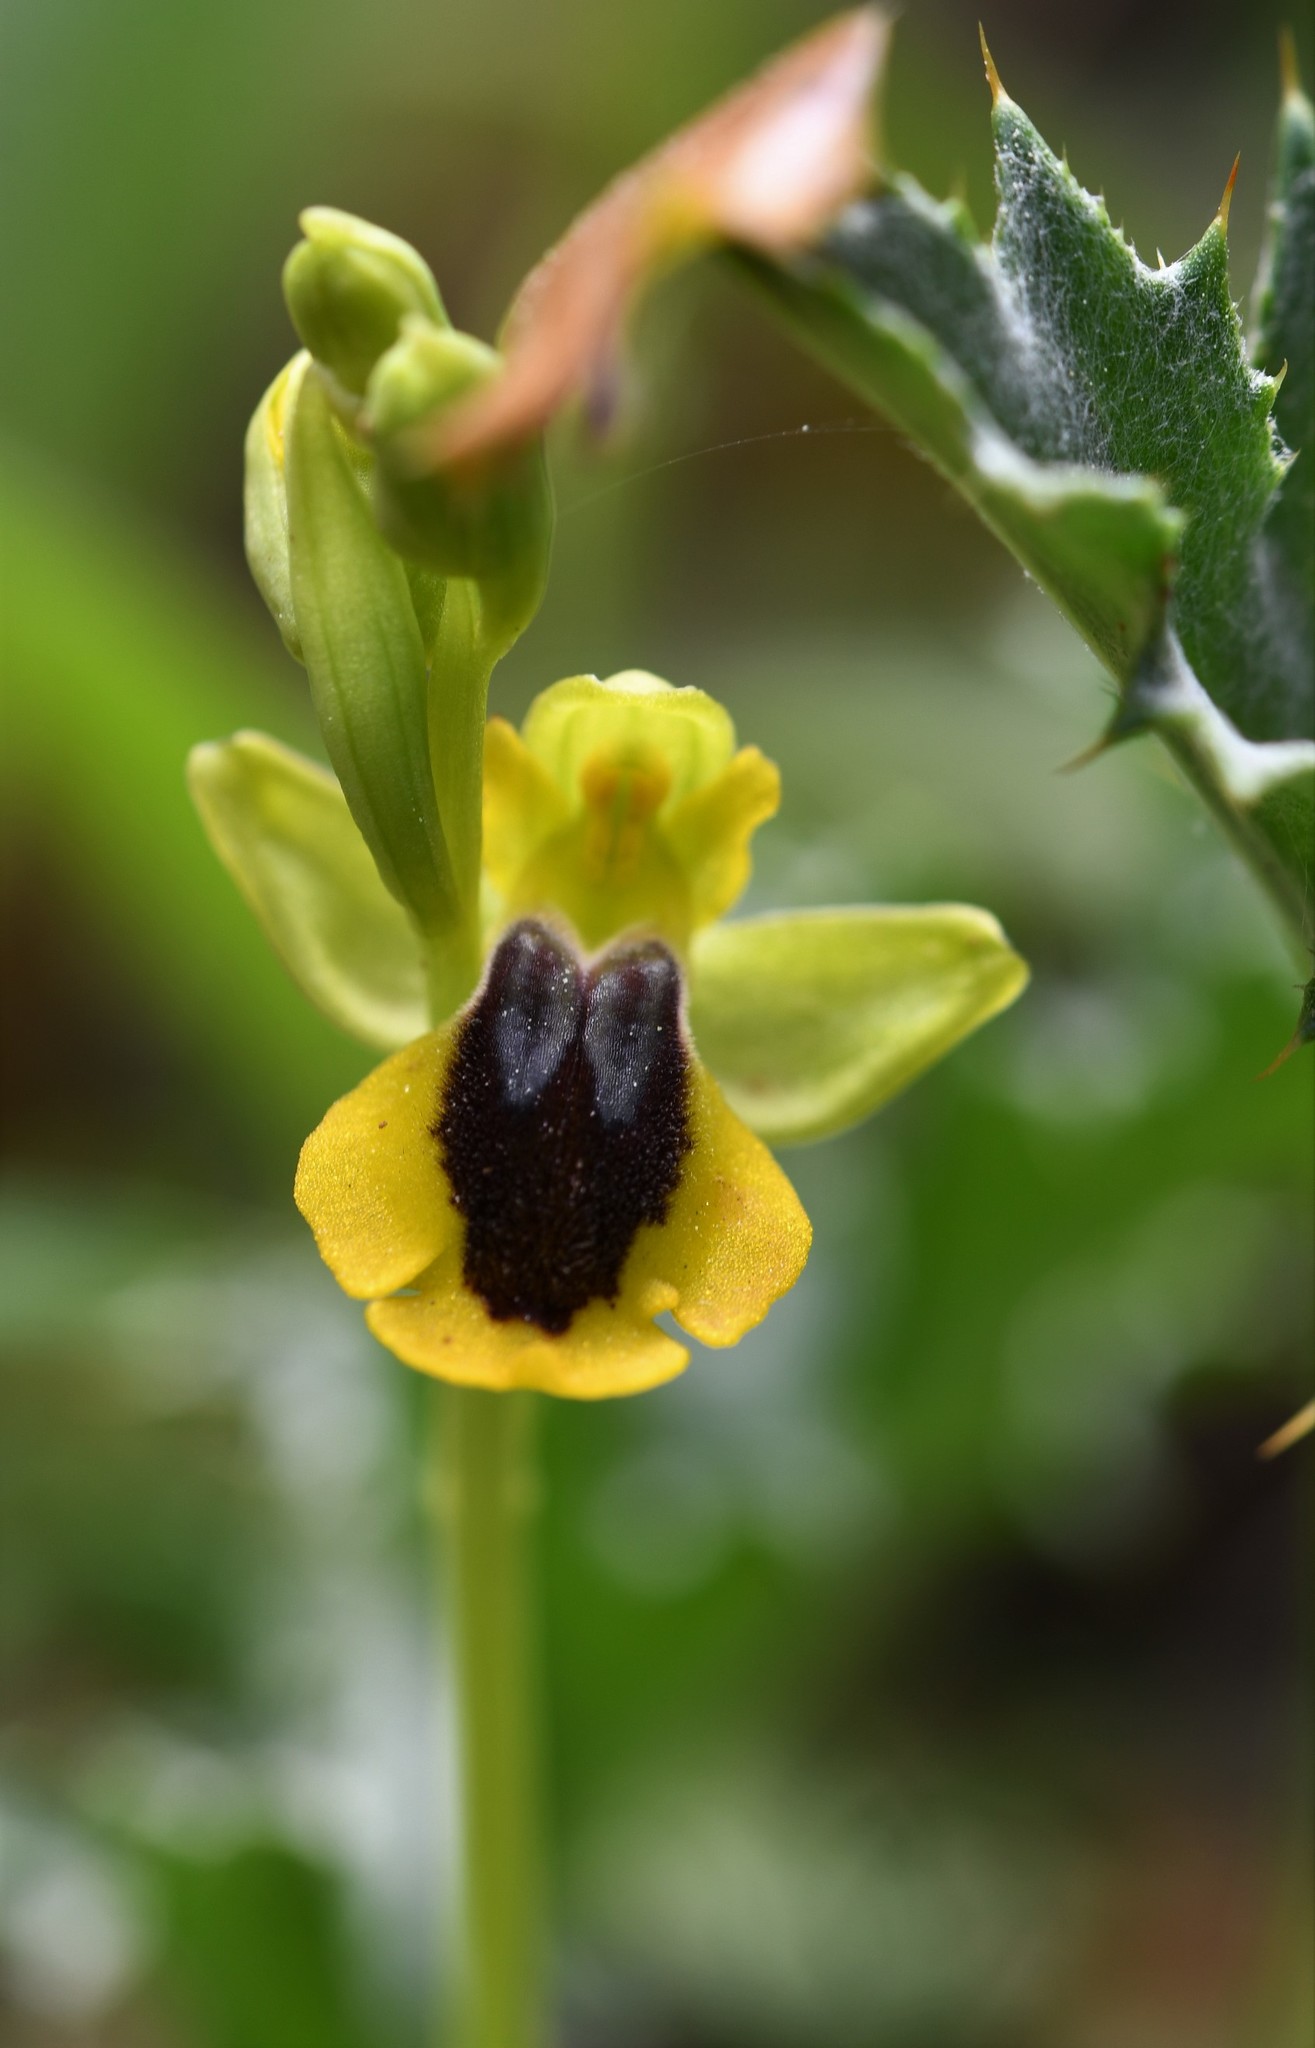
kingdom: Plantae
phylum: Tracheophyta
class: Liliopsida
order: Asparagales
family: Orchidaceae
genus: Ophrys
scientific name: Ophrys lutea
